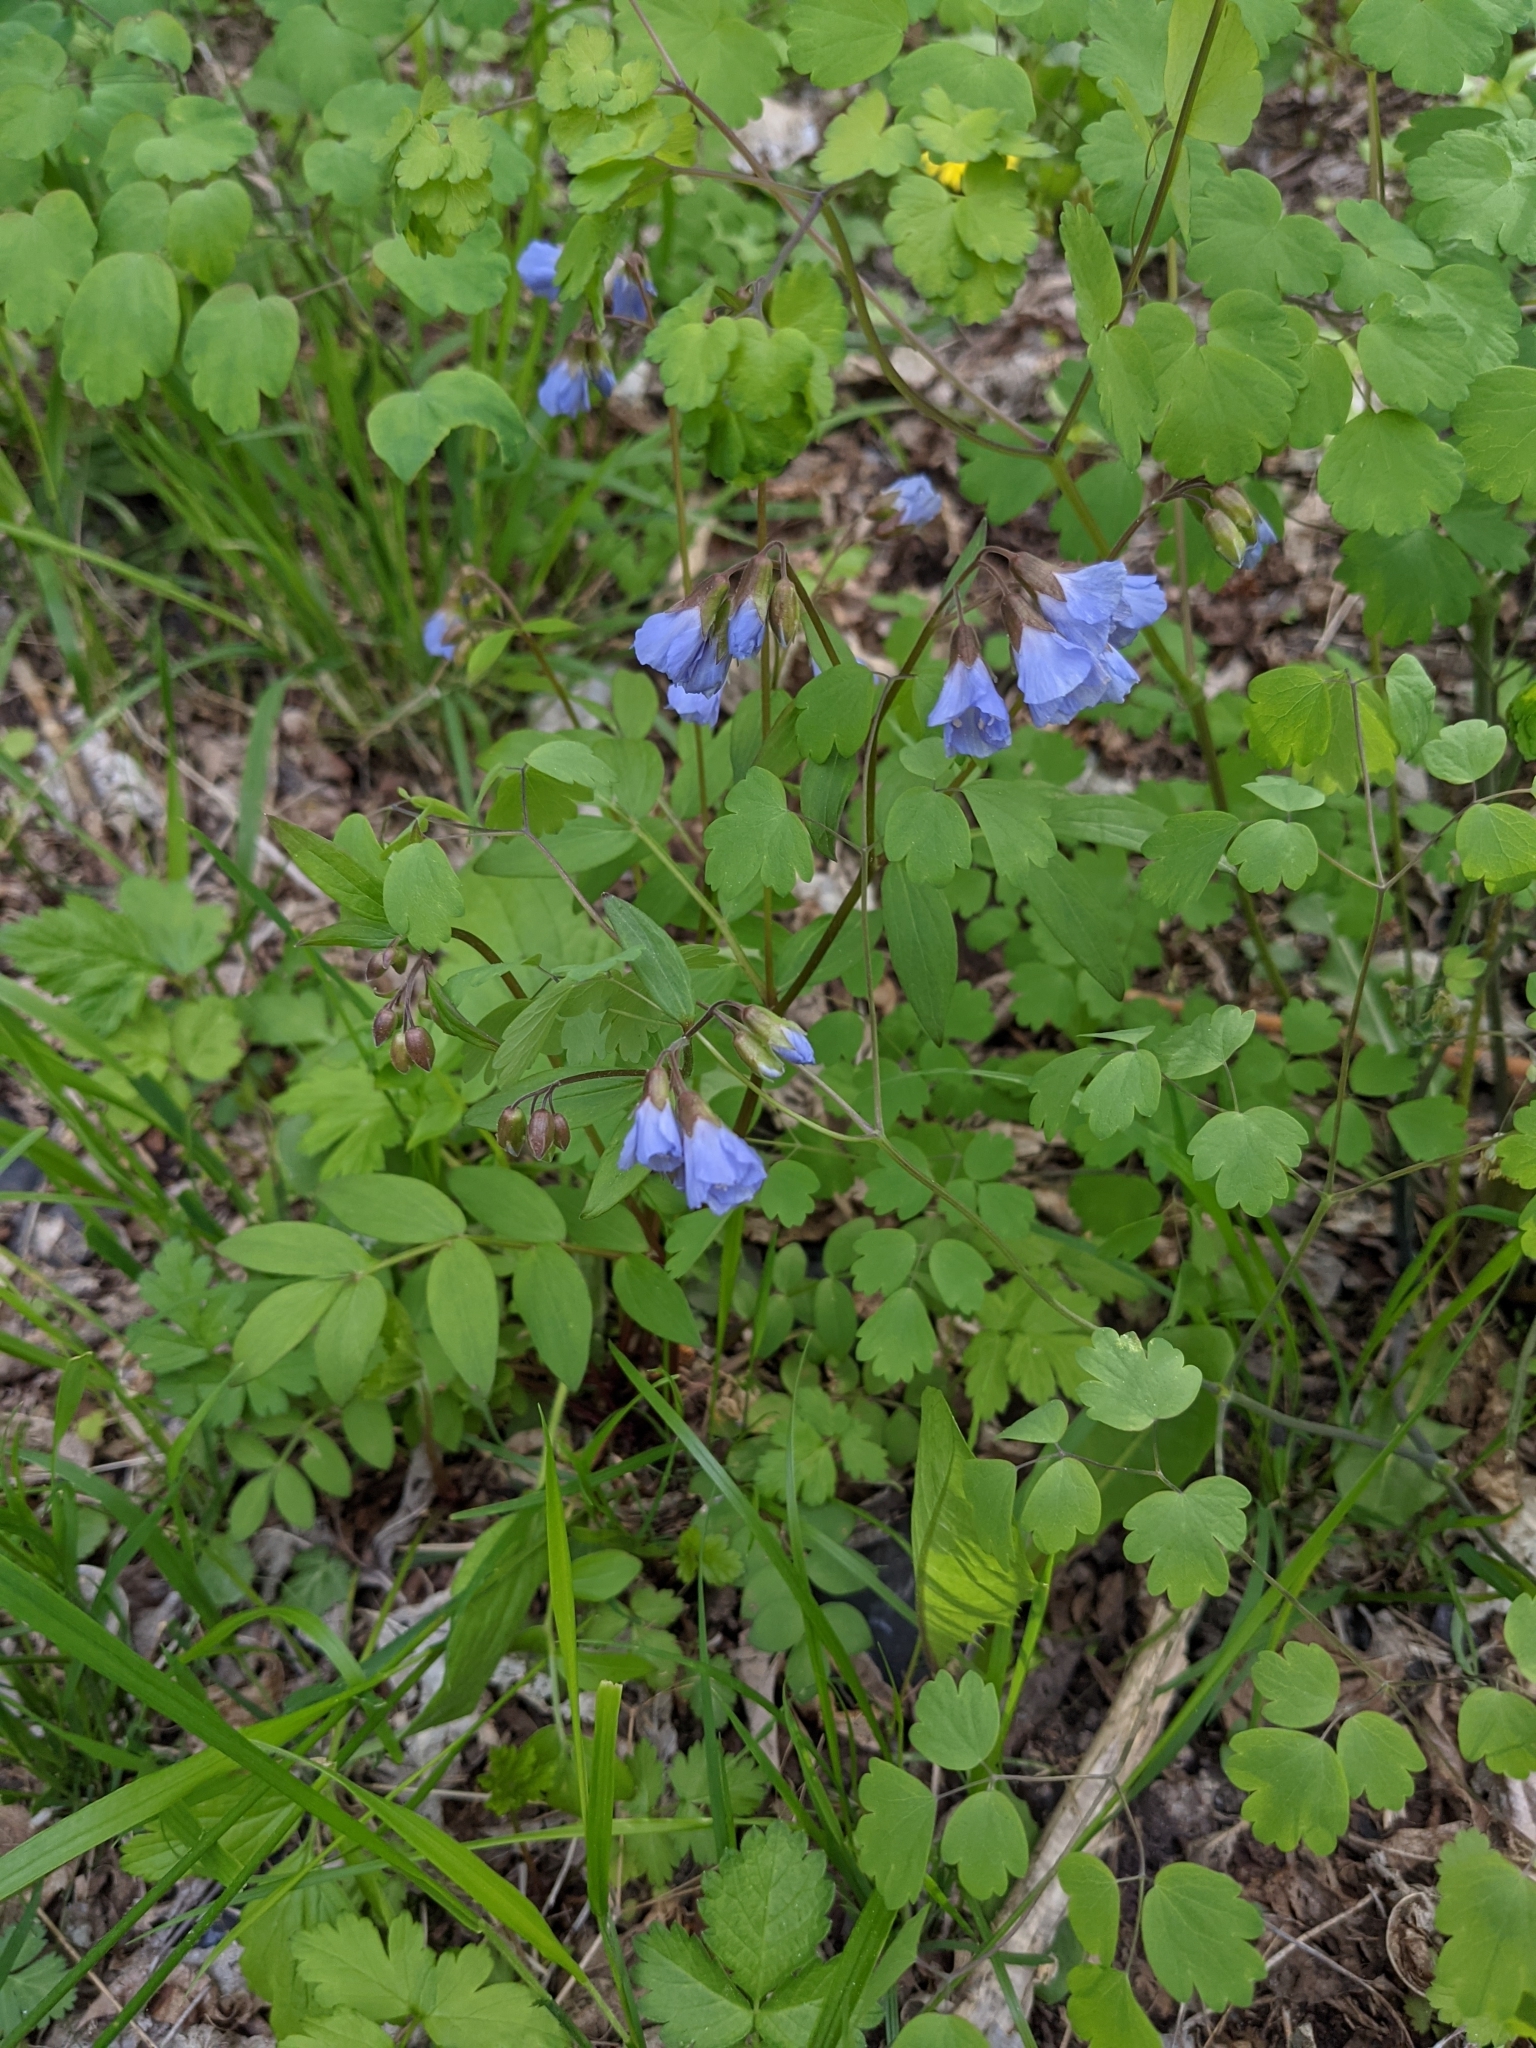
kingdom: Plantae
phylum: Tracheophyta
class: Magnoliopsida
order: Ericales
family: Polemoniaceae
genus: Polemonium
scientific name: Polemonium reptans
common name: Creeping jacob's-ladder
